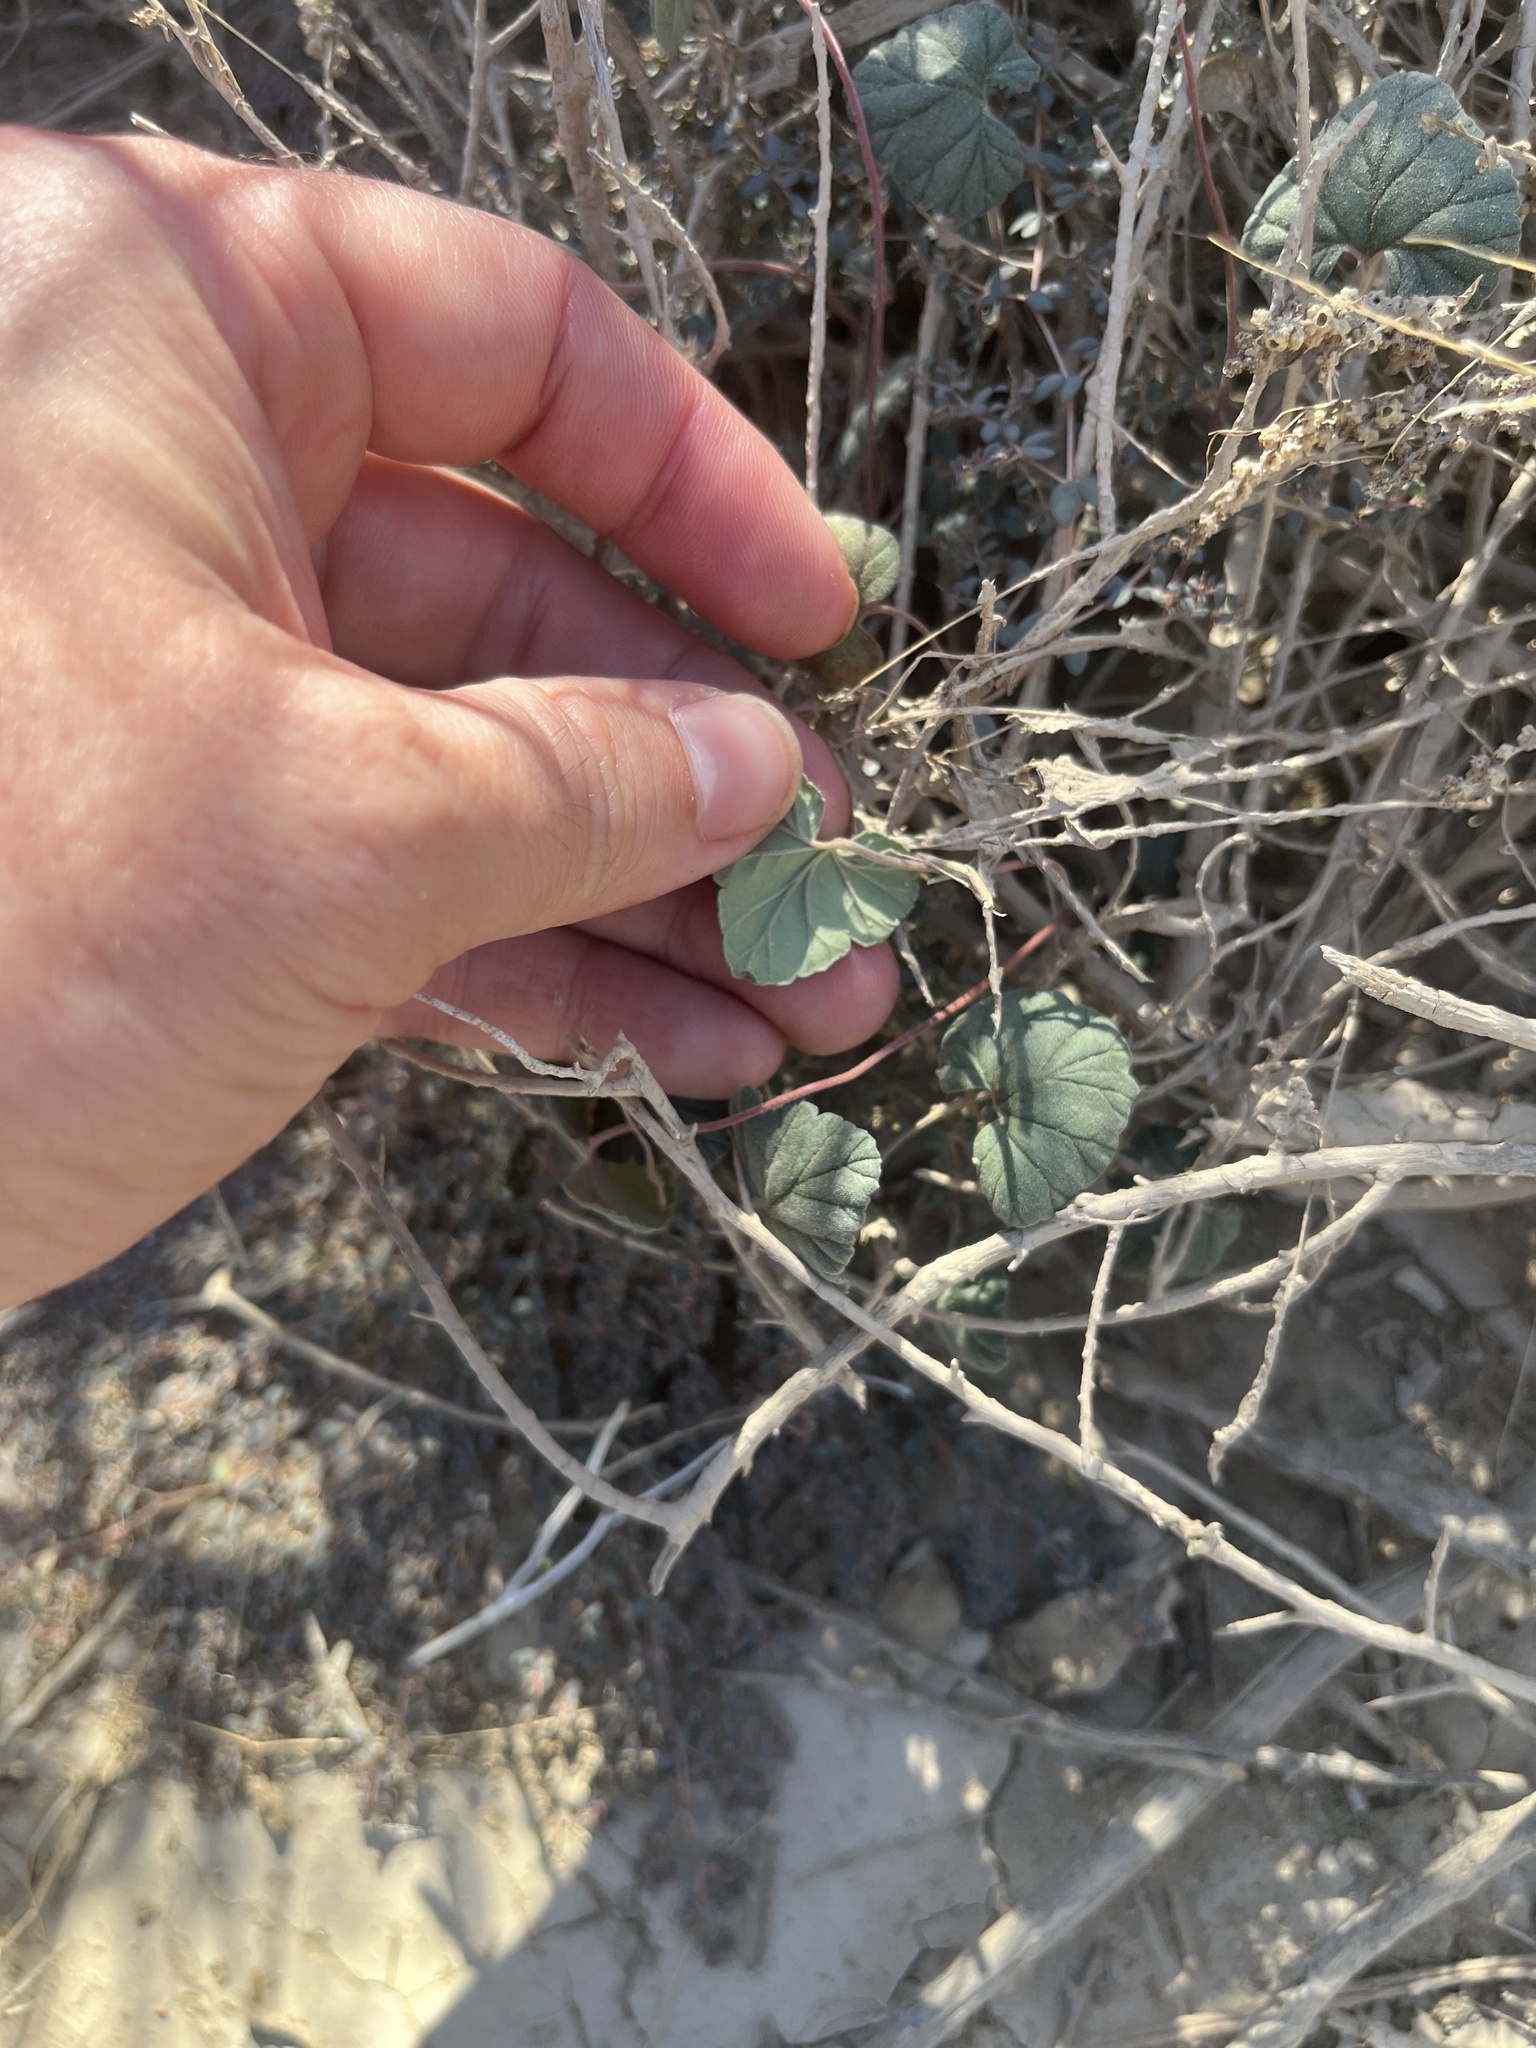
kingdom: Plantae
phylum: Tracheophyta
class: Magnoliopsida
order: Geraniales
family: Geraniaceae
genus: Erodium
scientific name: Erodium texanum
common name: Texas stork's-bill
